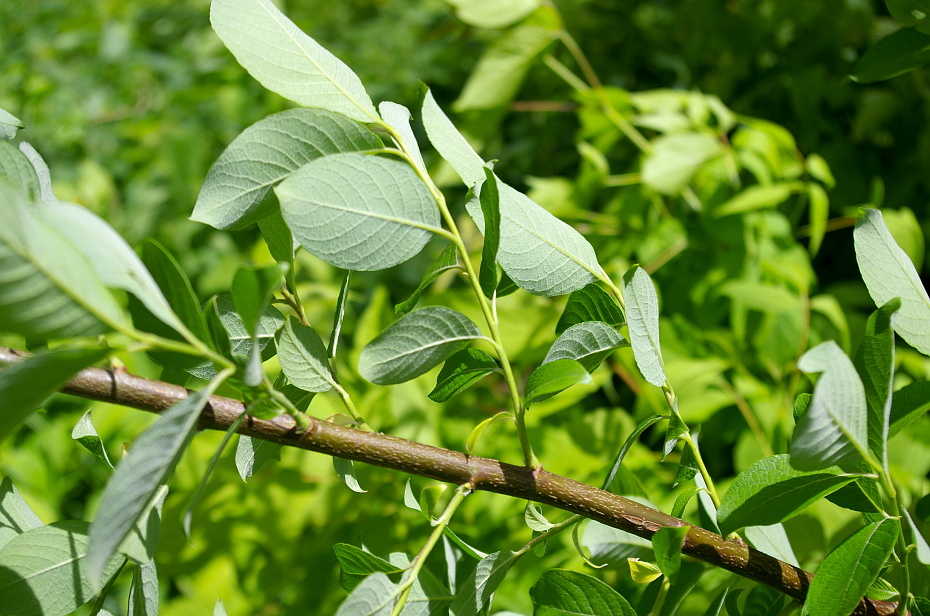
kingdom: Plantae
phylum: Tracheophyta
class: Magnoliopsida
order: Malpighiales
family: Salicaceae
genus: Salix
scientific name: Salix caprea
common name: Goat willow
